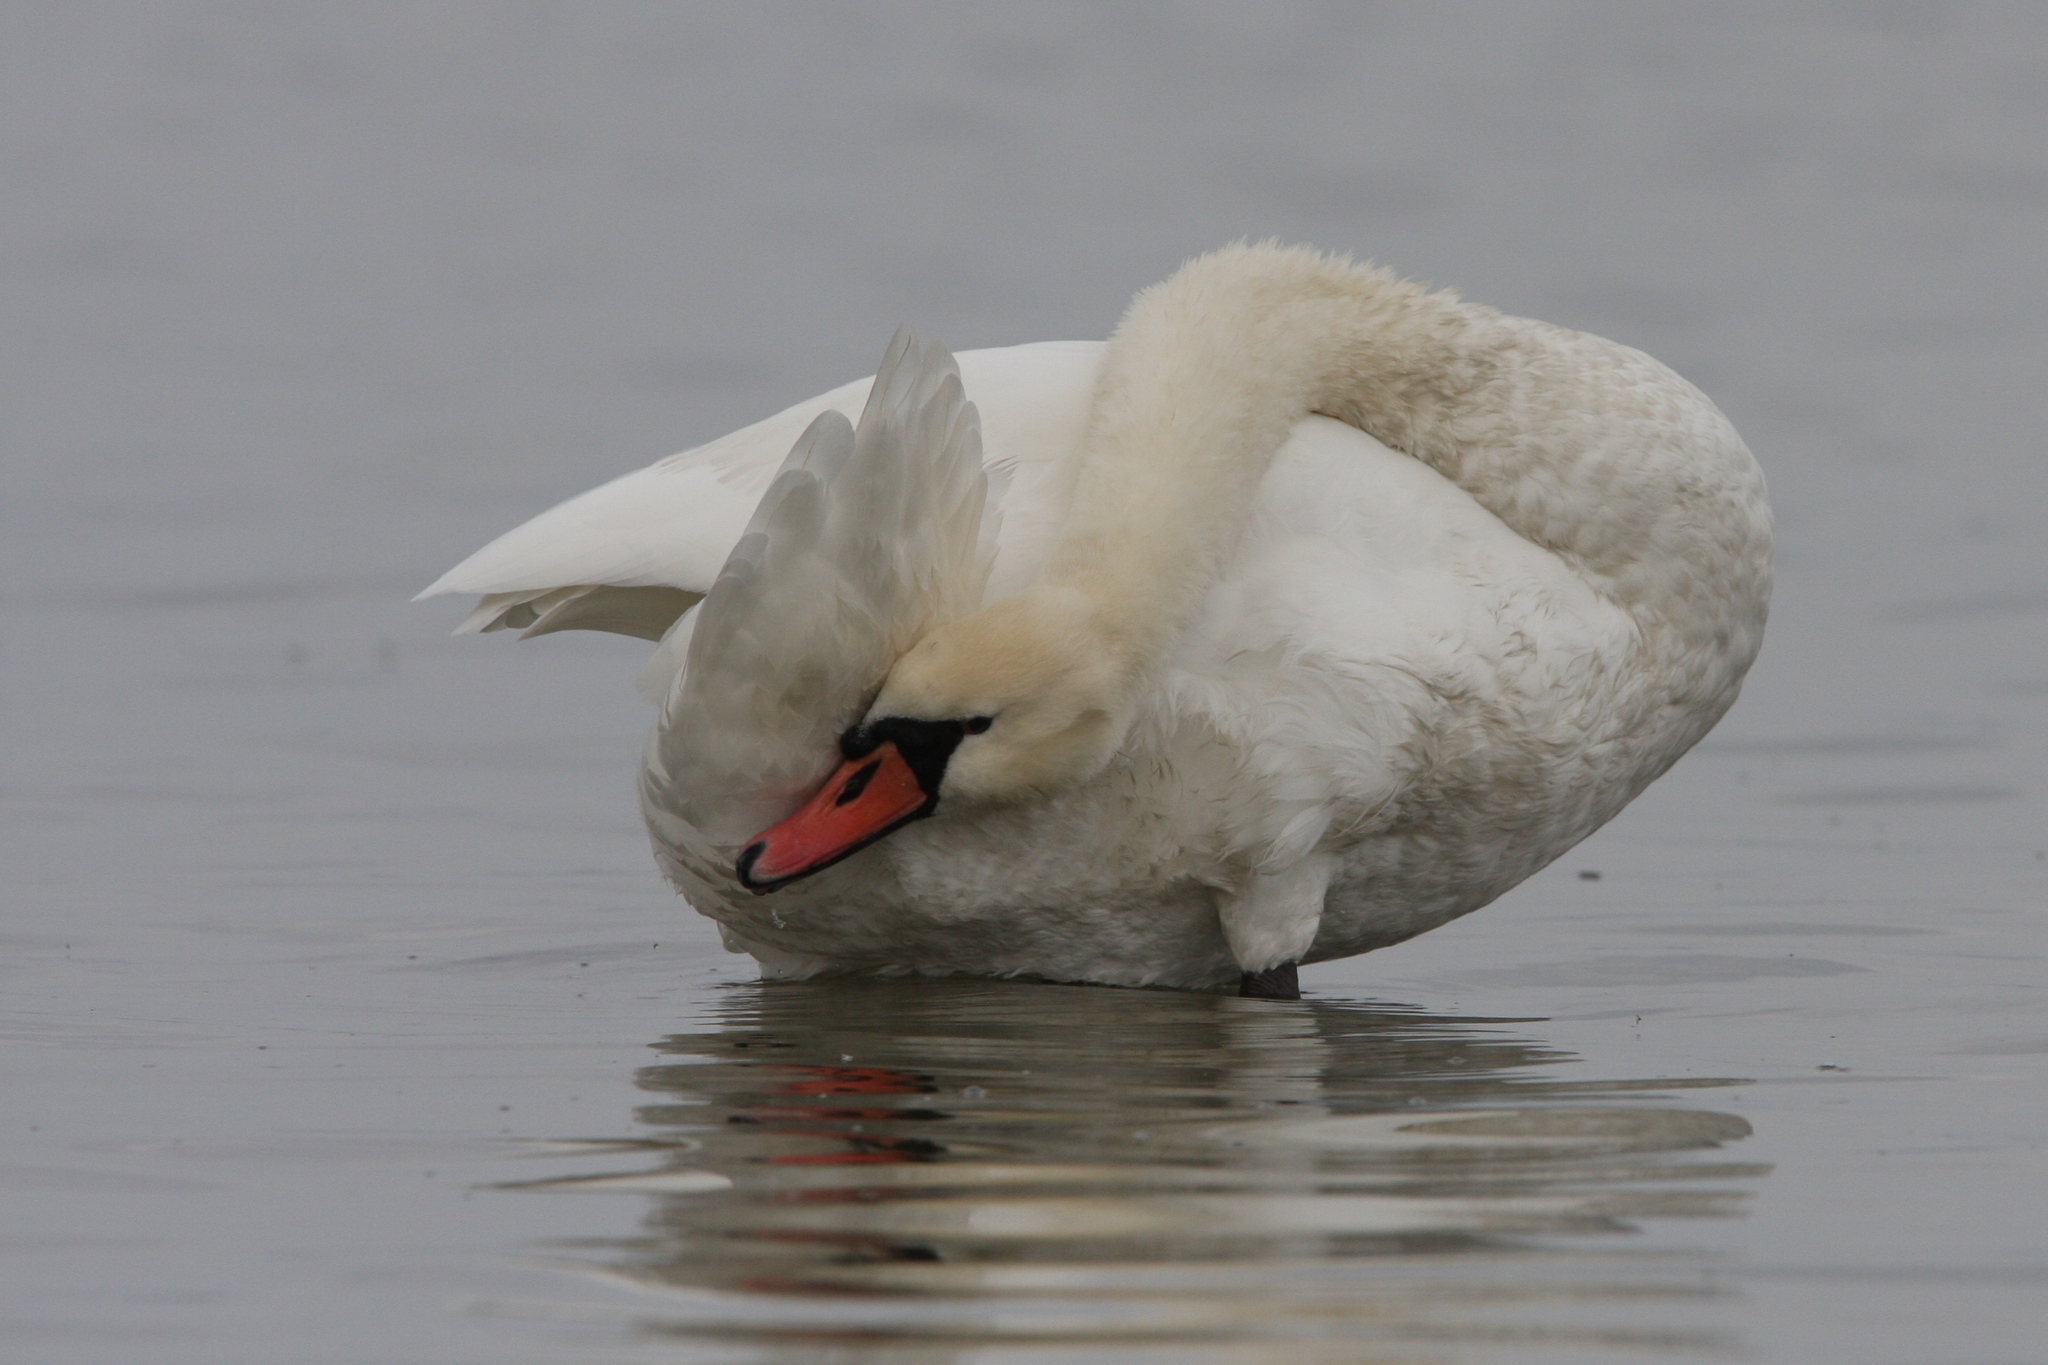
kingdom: Animalia
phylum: Chordata
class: Aves
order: Anseriformes
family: Anatidae
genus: Cygnus
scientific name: Cygnus olor
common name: Mute swan
